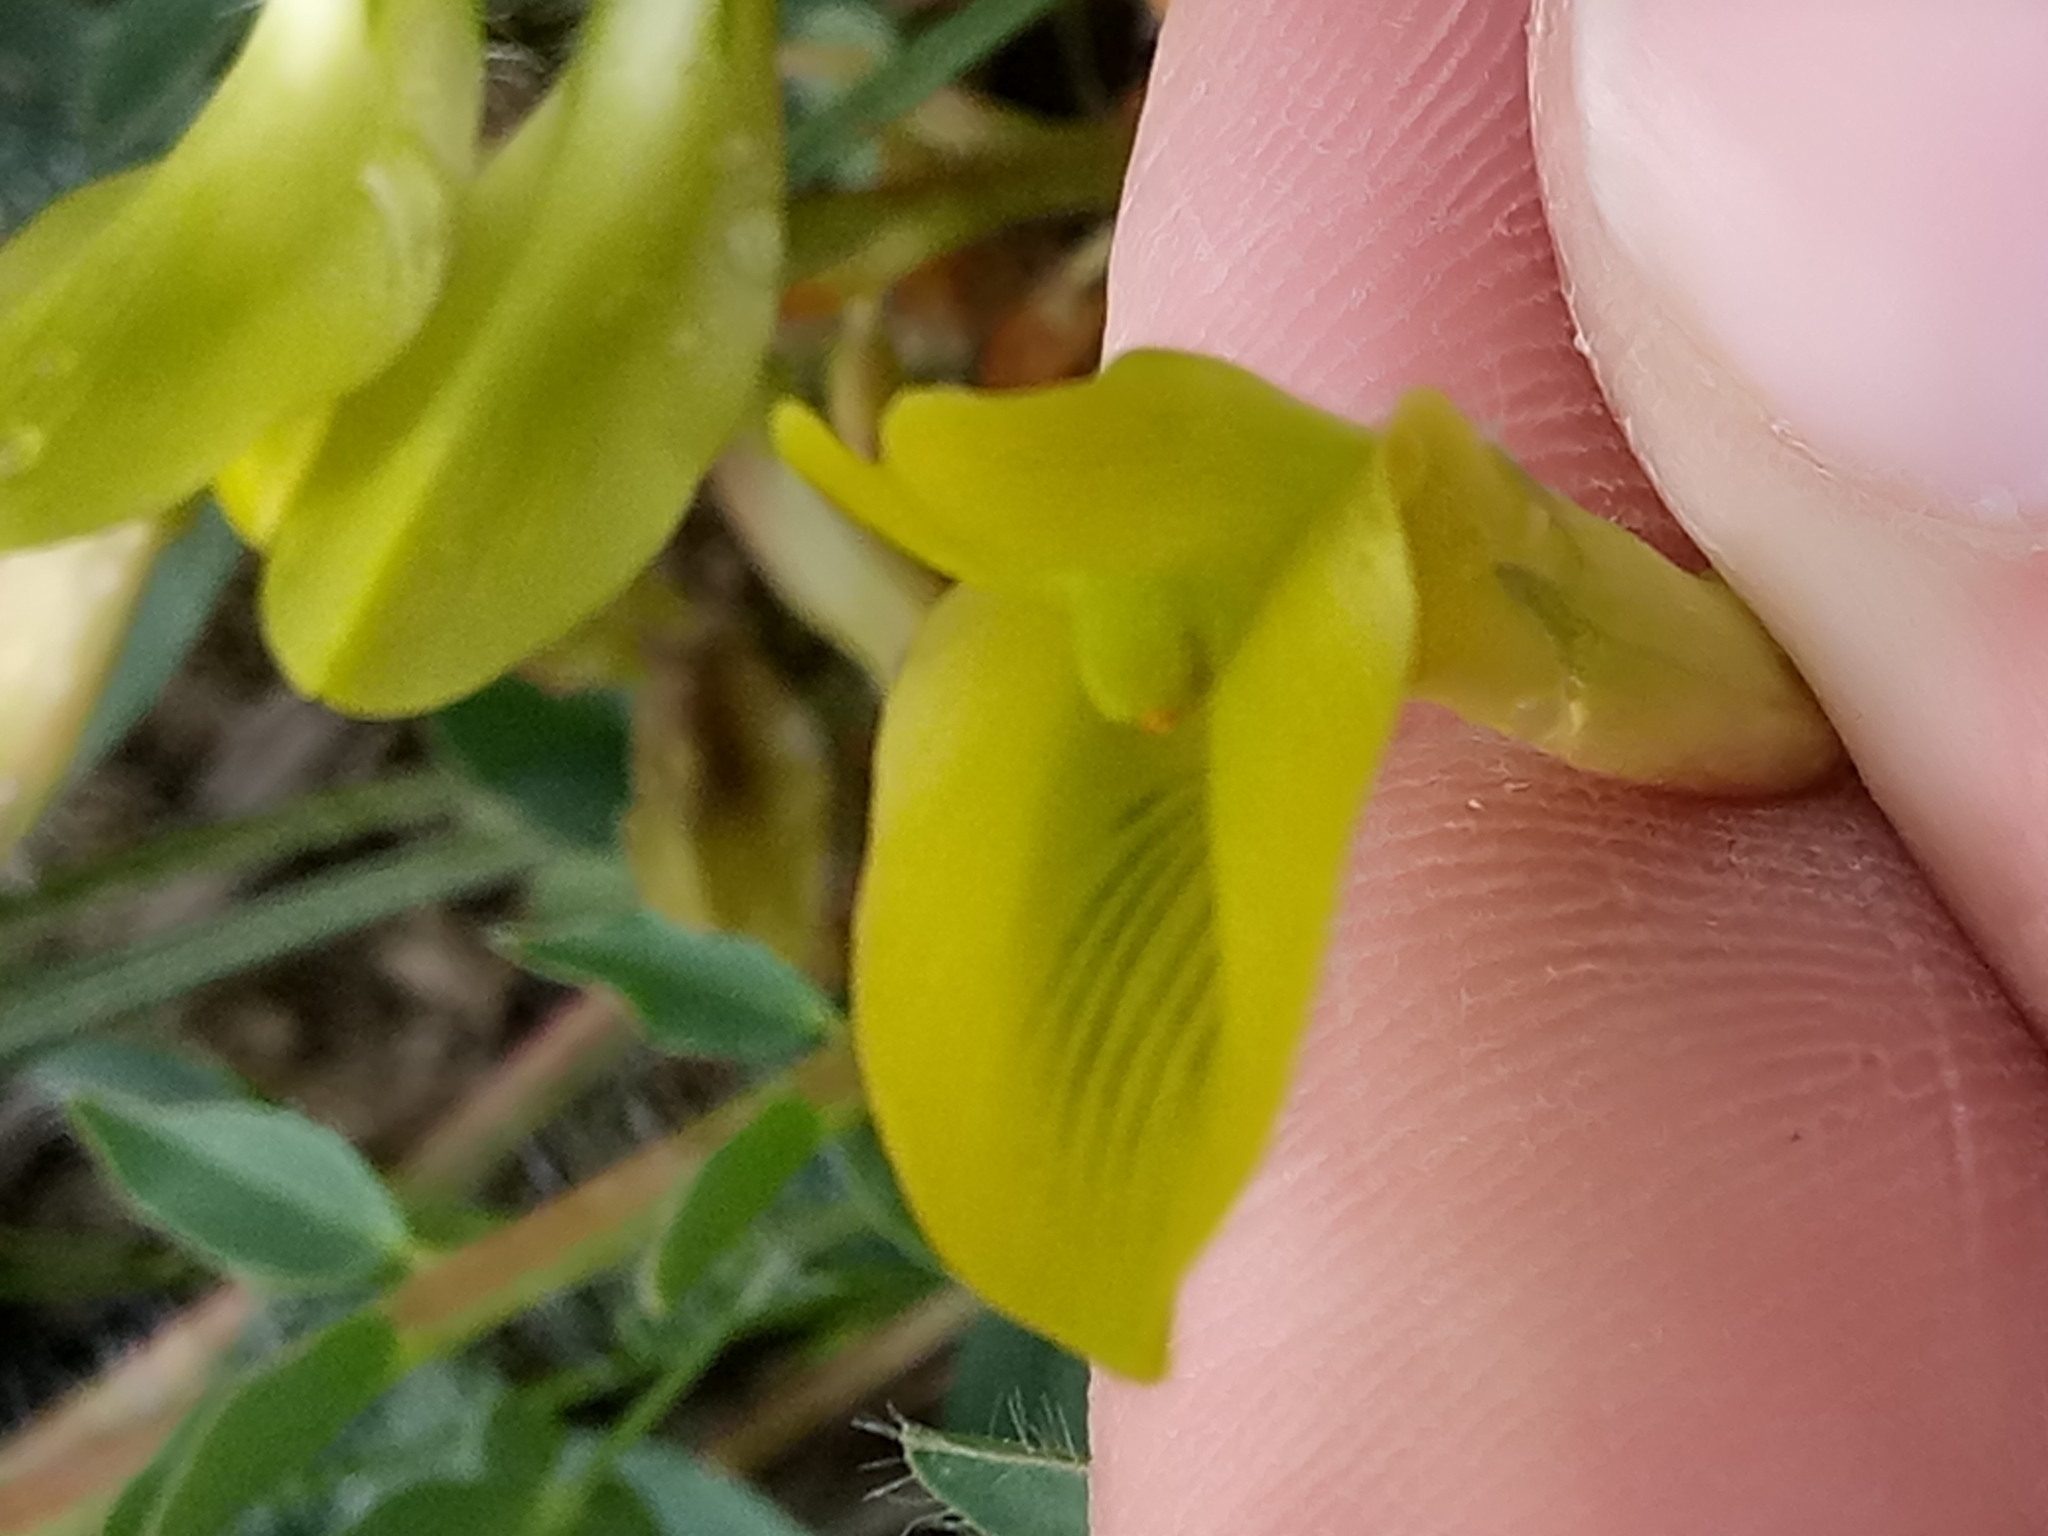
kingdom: Plantae
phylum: Tracheophyta
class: Magnoliopsida
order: Fabales
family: Fabaceae
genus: Astragalus
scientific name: Astragalus boreoafricanus
